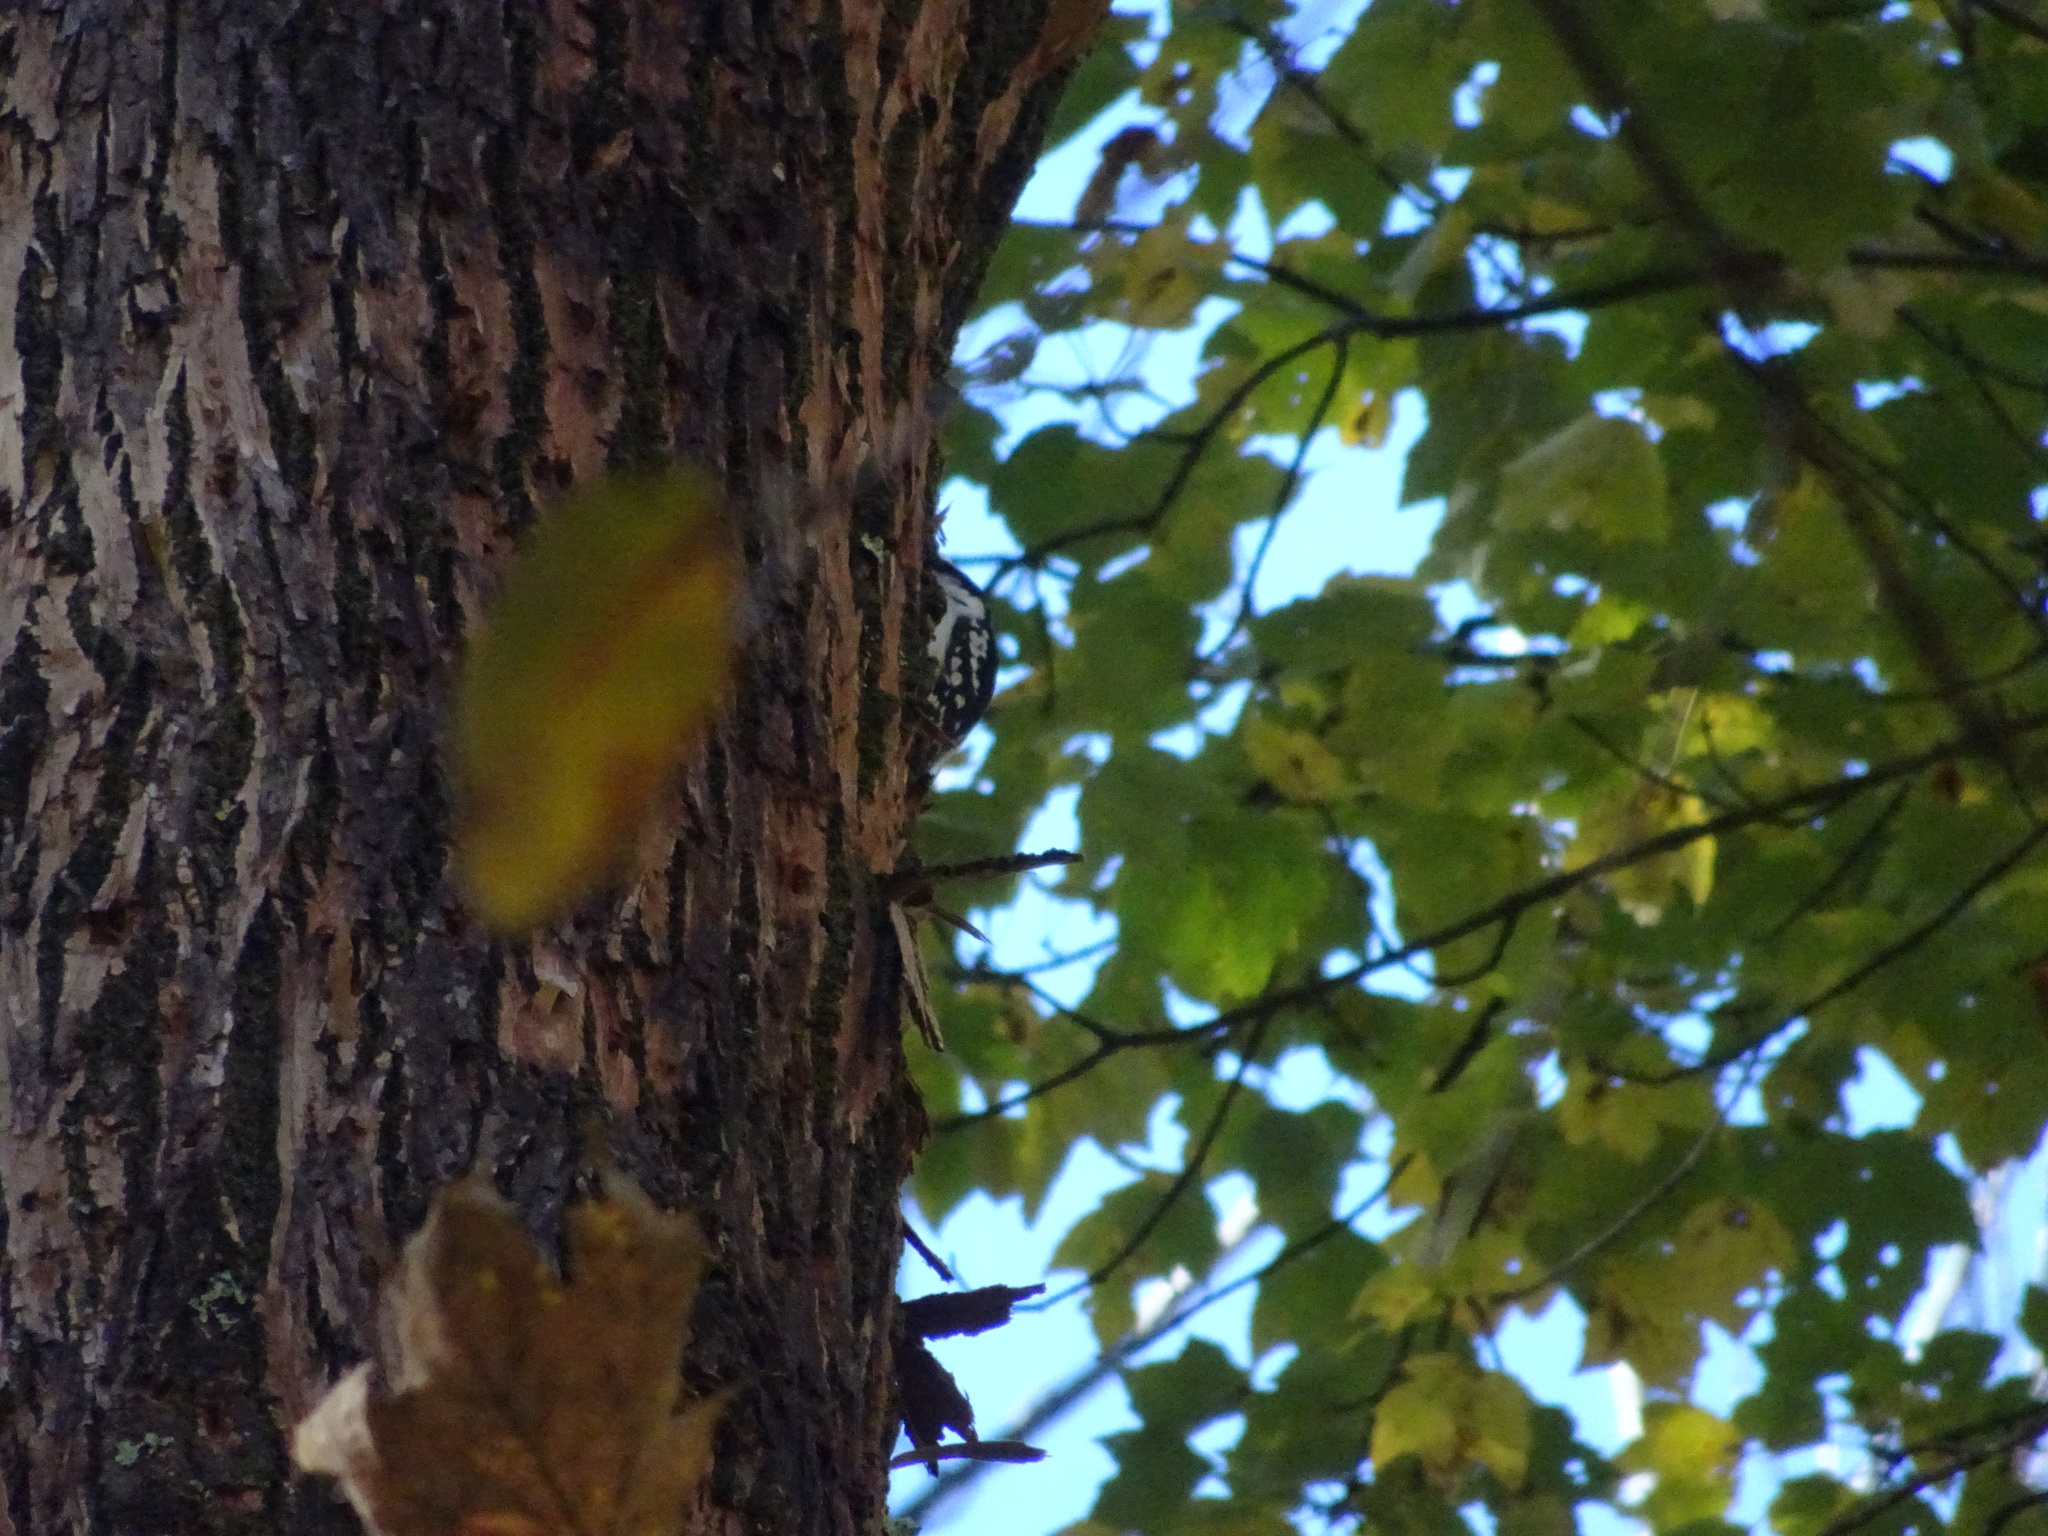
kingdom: Animalia
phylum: Chordata
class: Aves
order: Piciformes
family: Picidae
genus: Leuconotopicus
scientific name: Leuconotopicus villosus
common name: Hairy woodpecker
